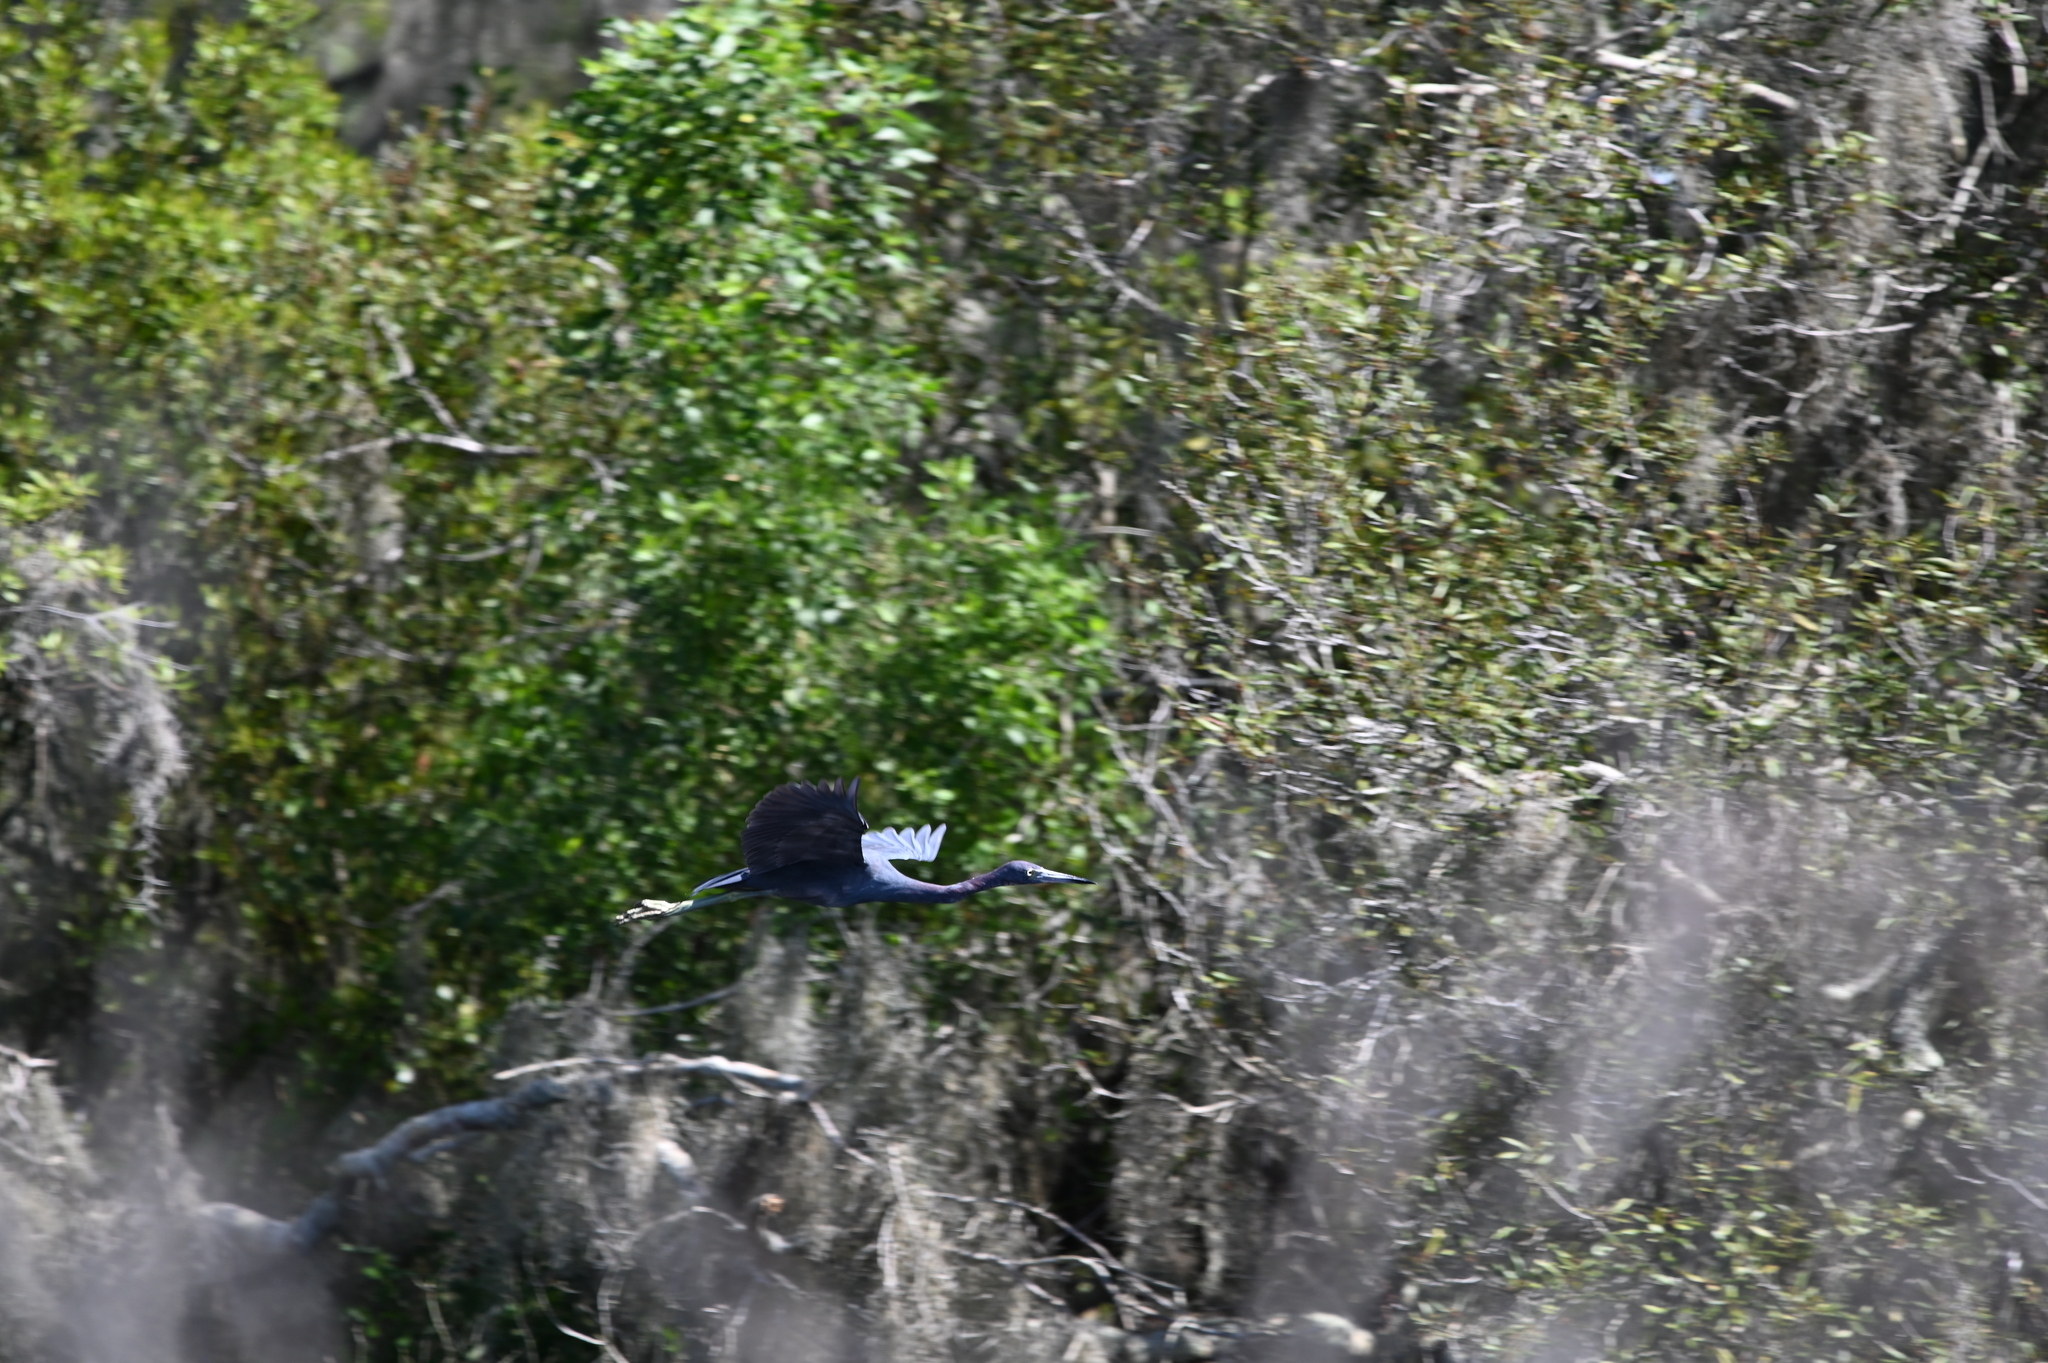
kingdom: Animalia
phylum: Chordata
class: Aves
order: Pelecaniformes
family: Ardeidae
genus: Egretta
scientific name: Egretta caerulea
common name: Little blue heron
